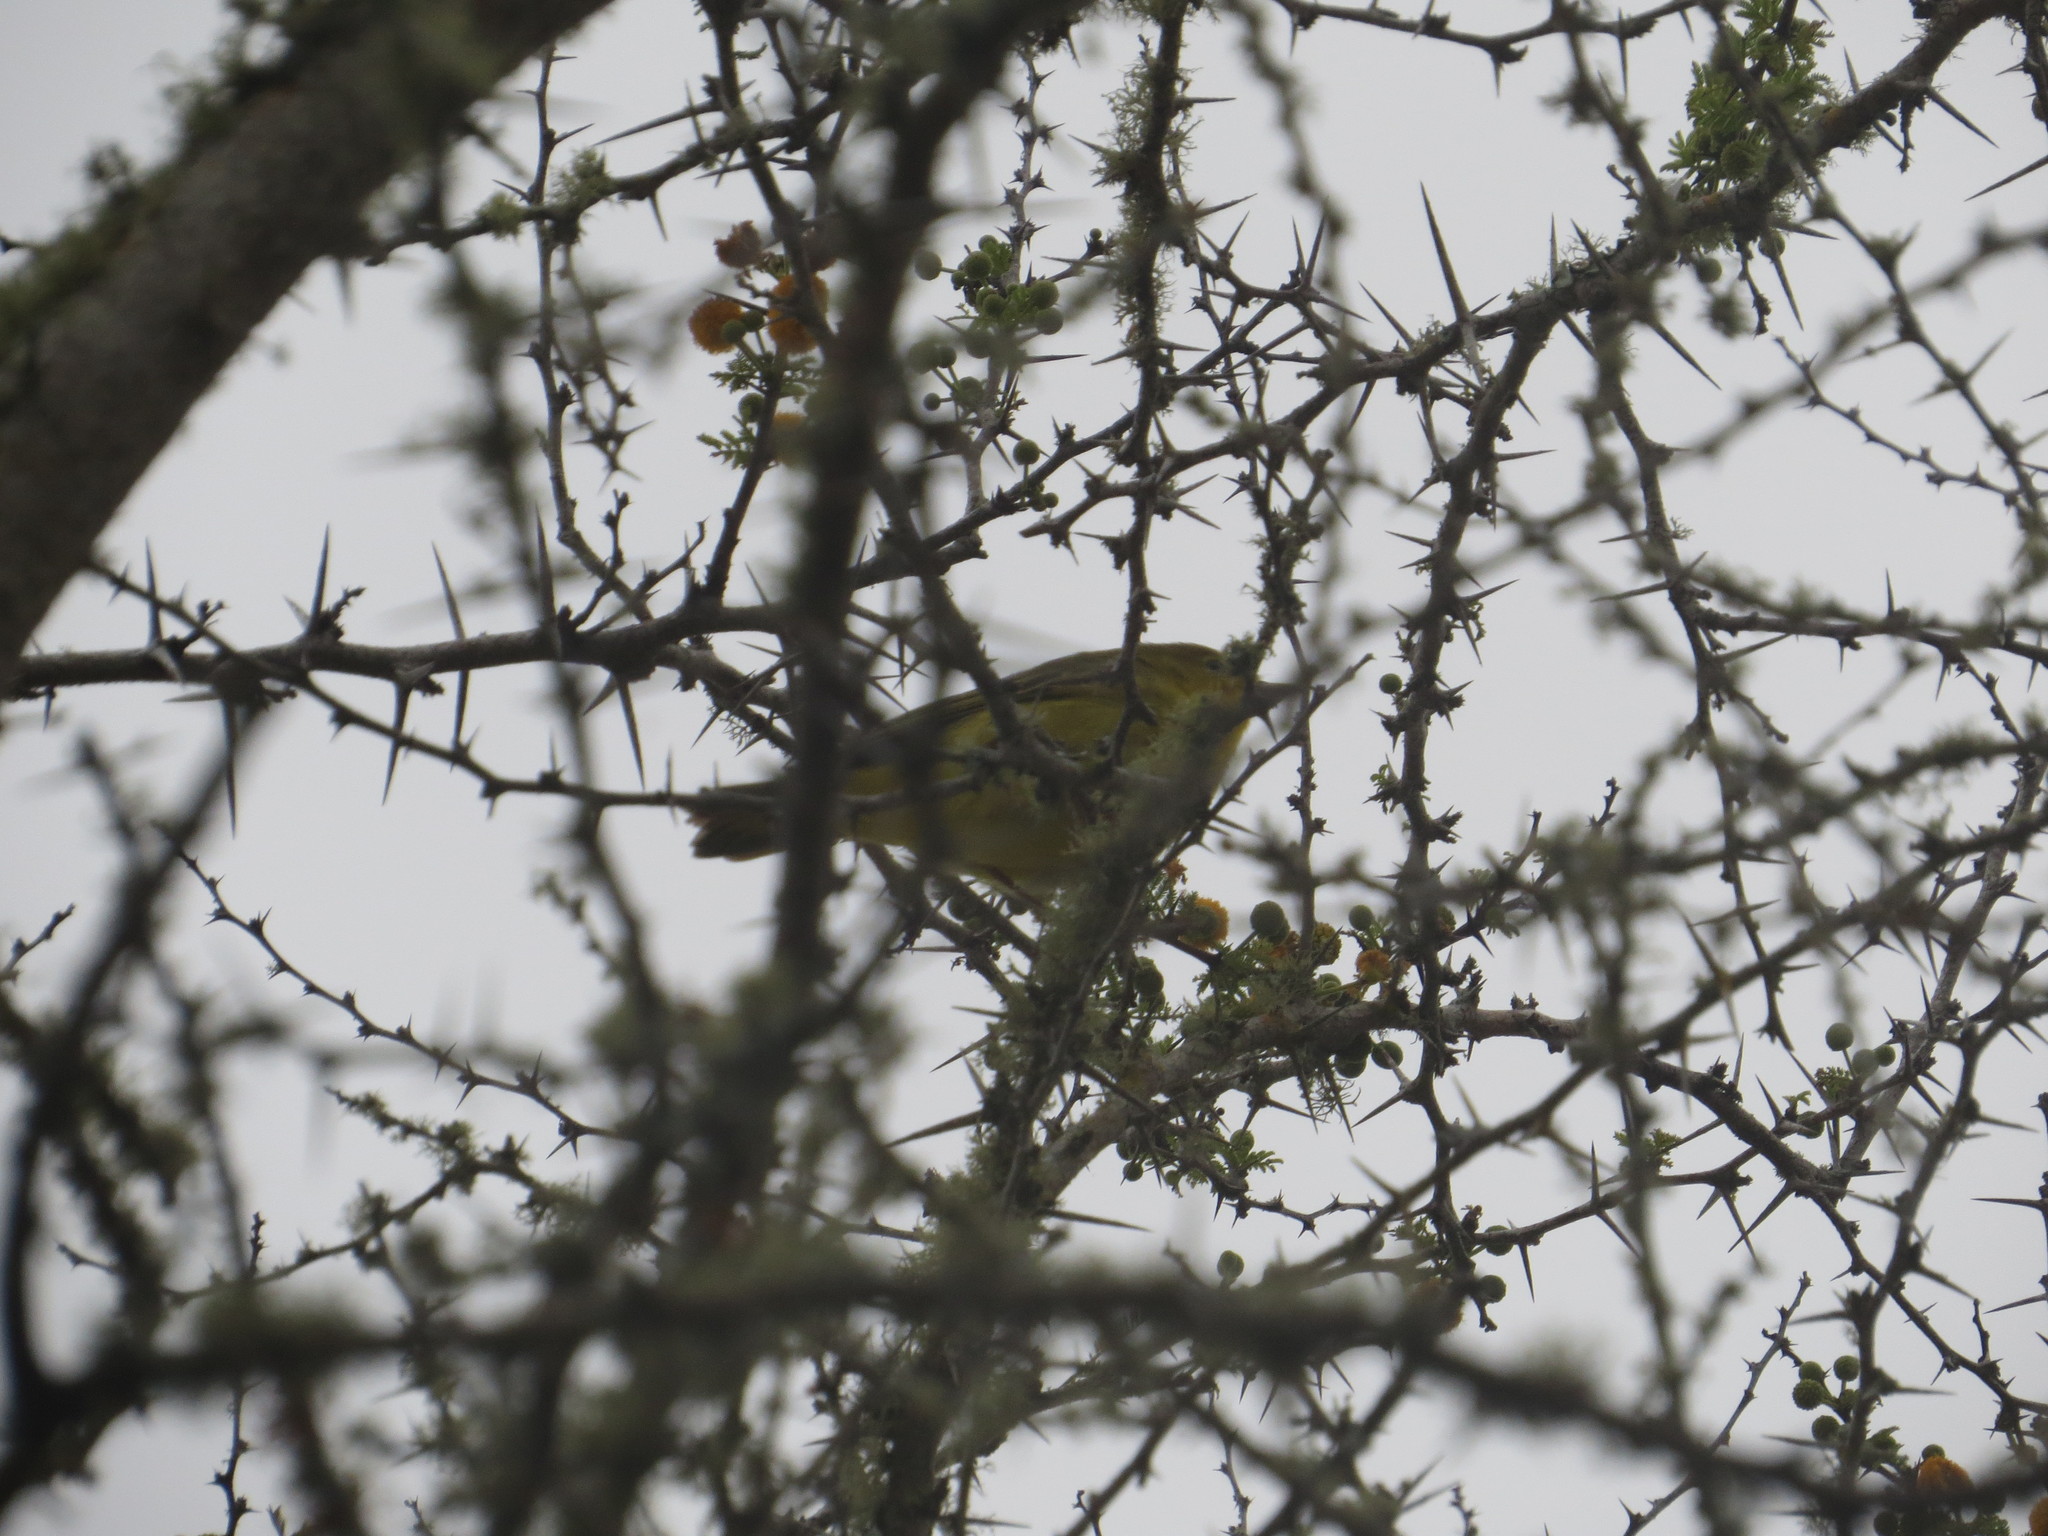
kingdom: Animalia
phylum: Chordata
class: Aves
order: Passeriformes
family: Parulidae
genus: Setophaga
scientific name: Setophaga petechia
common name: Yellow warbler
